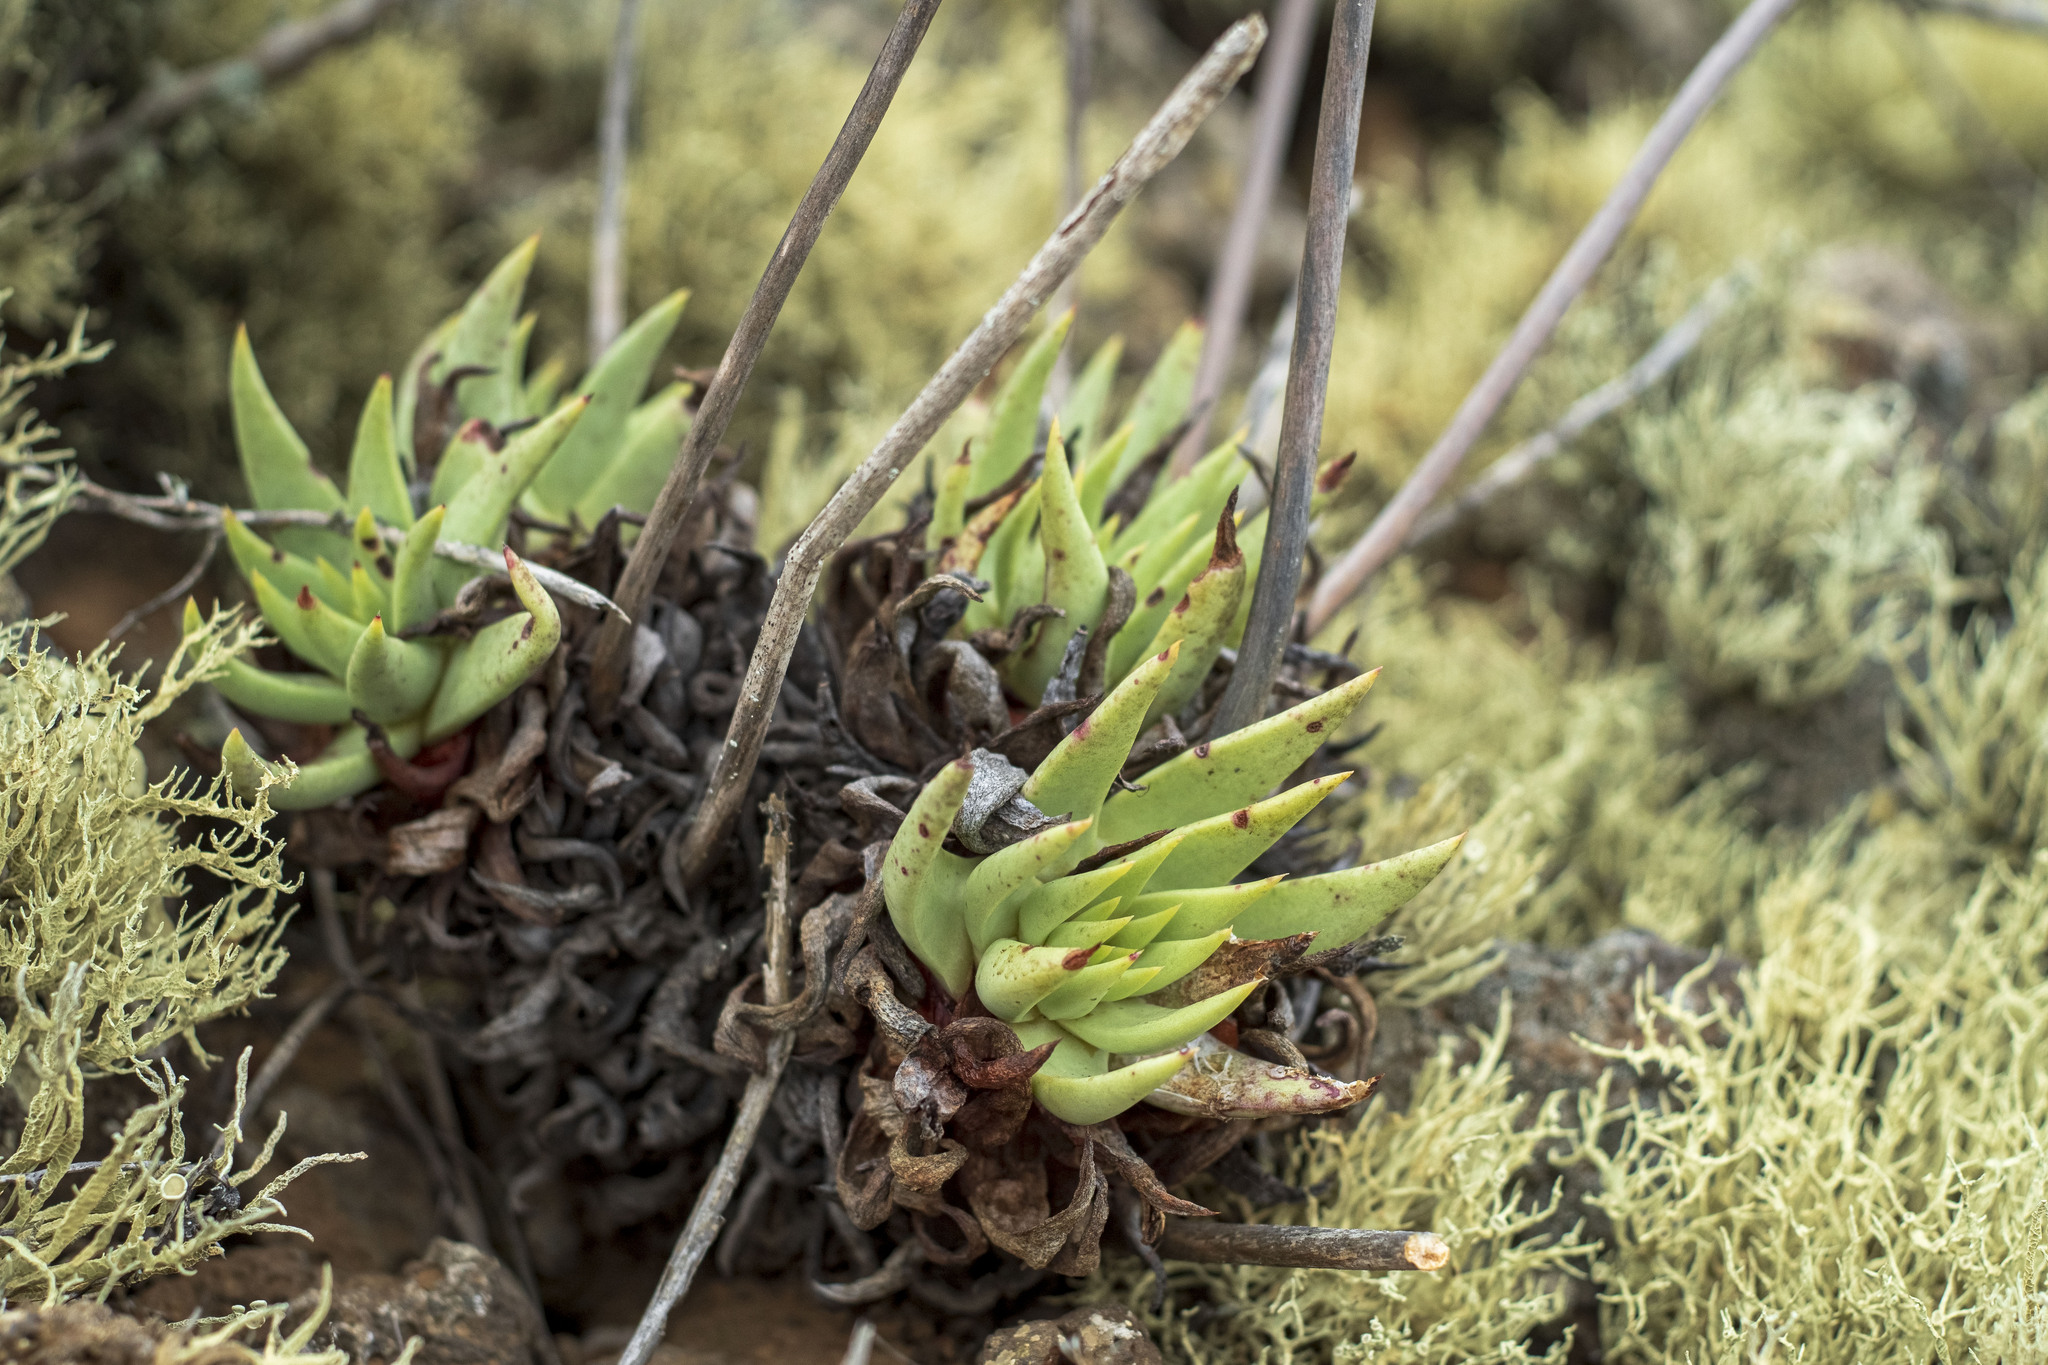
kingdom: Plantae
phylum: Tracheophyta
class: Magnoliopsida
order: Saxifragales
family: Crassulaceae
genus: Dudleya
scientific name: Dudleya cultrata
